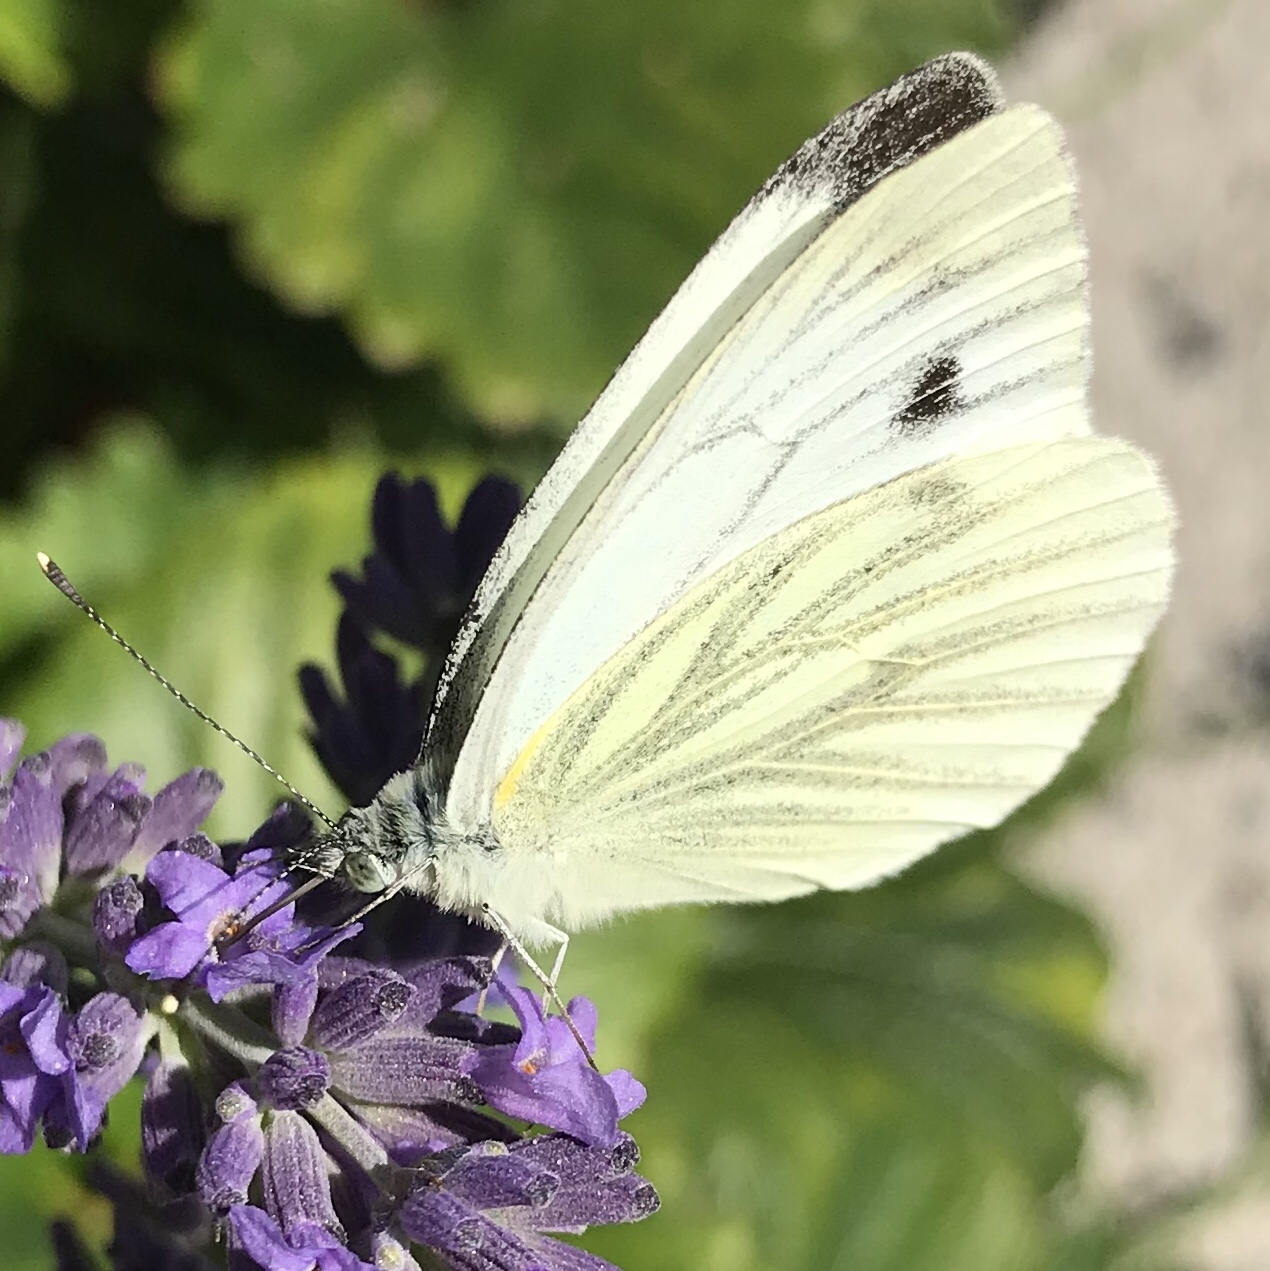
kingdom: Animalia
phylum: Arthropoda
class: Insecta
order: Lepidoptera
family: Pieridae
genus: Pieris
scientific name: Pieris napi
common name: Green-veined white
